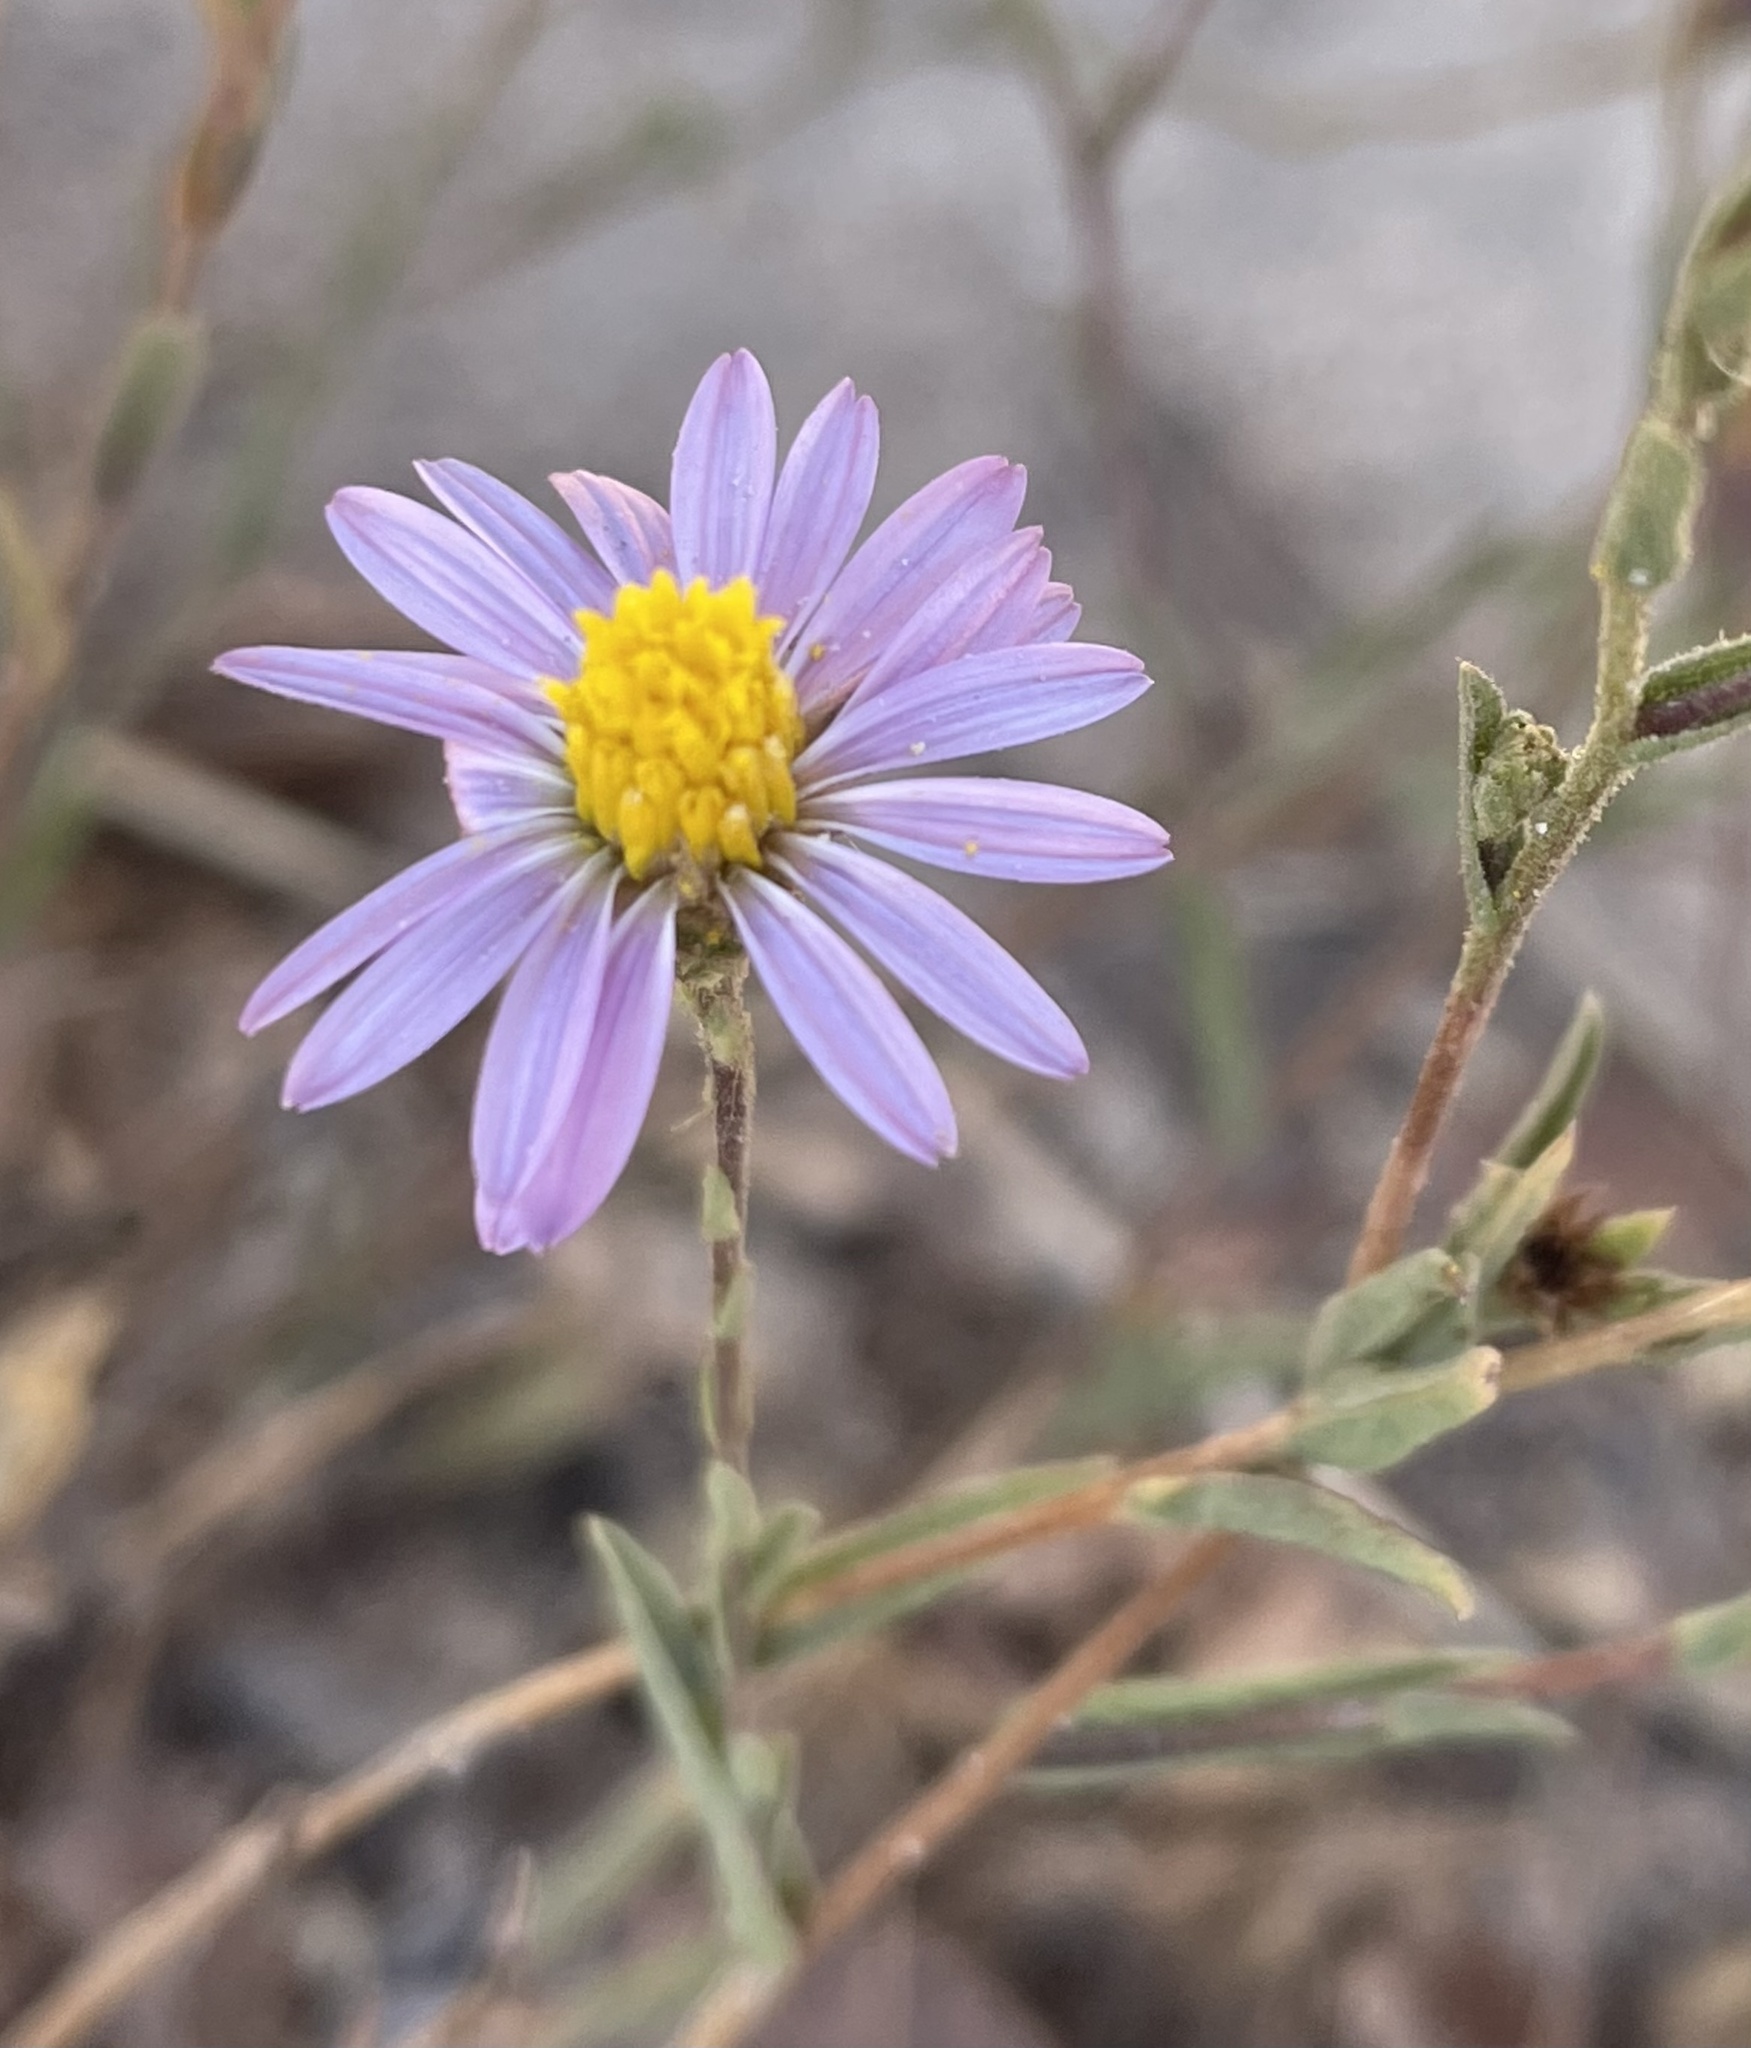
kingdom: Plantae
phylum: Tracheophyta
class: Magnoliopsida
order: Asterales
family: Asteraceae
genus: Corethrogyne
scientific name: Corethrogyne filaginifolia
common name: Sand-aster
